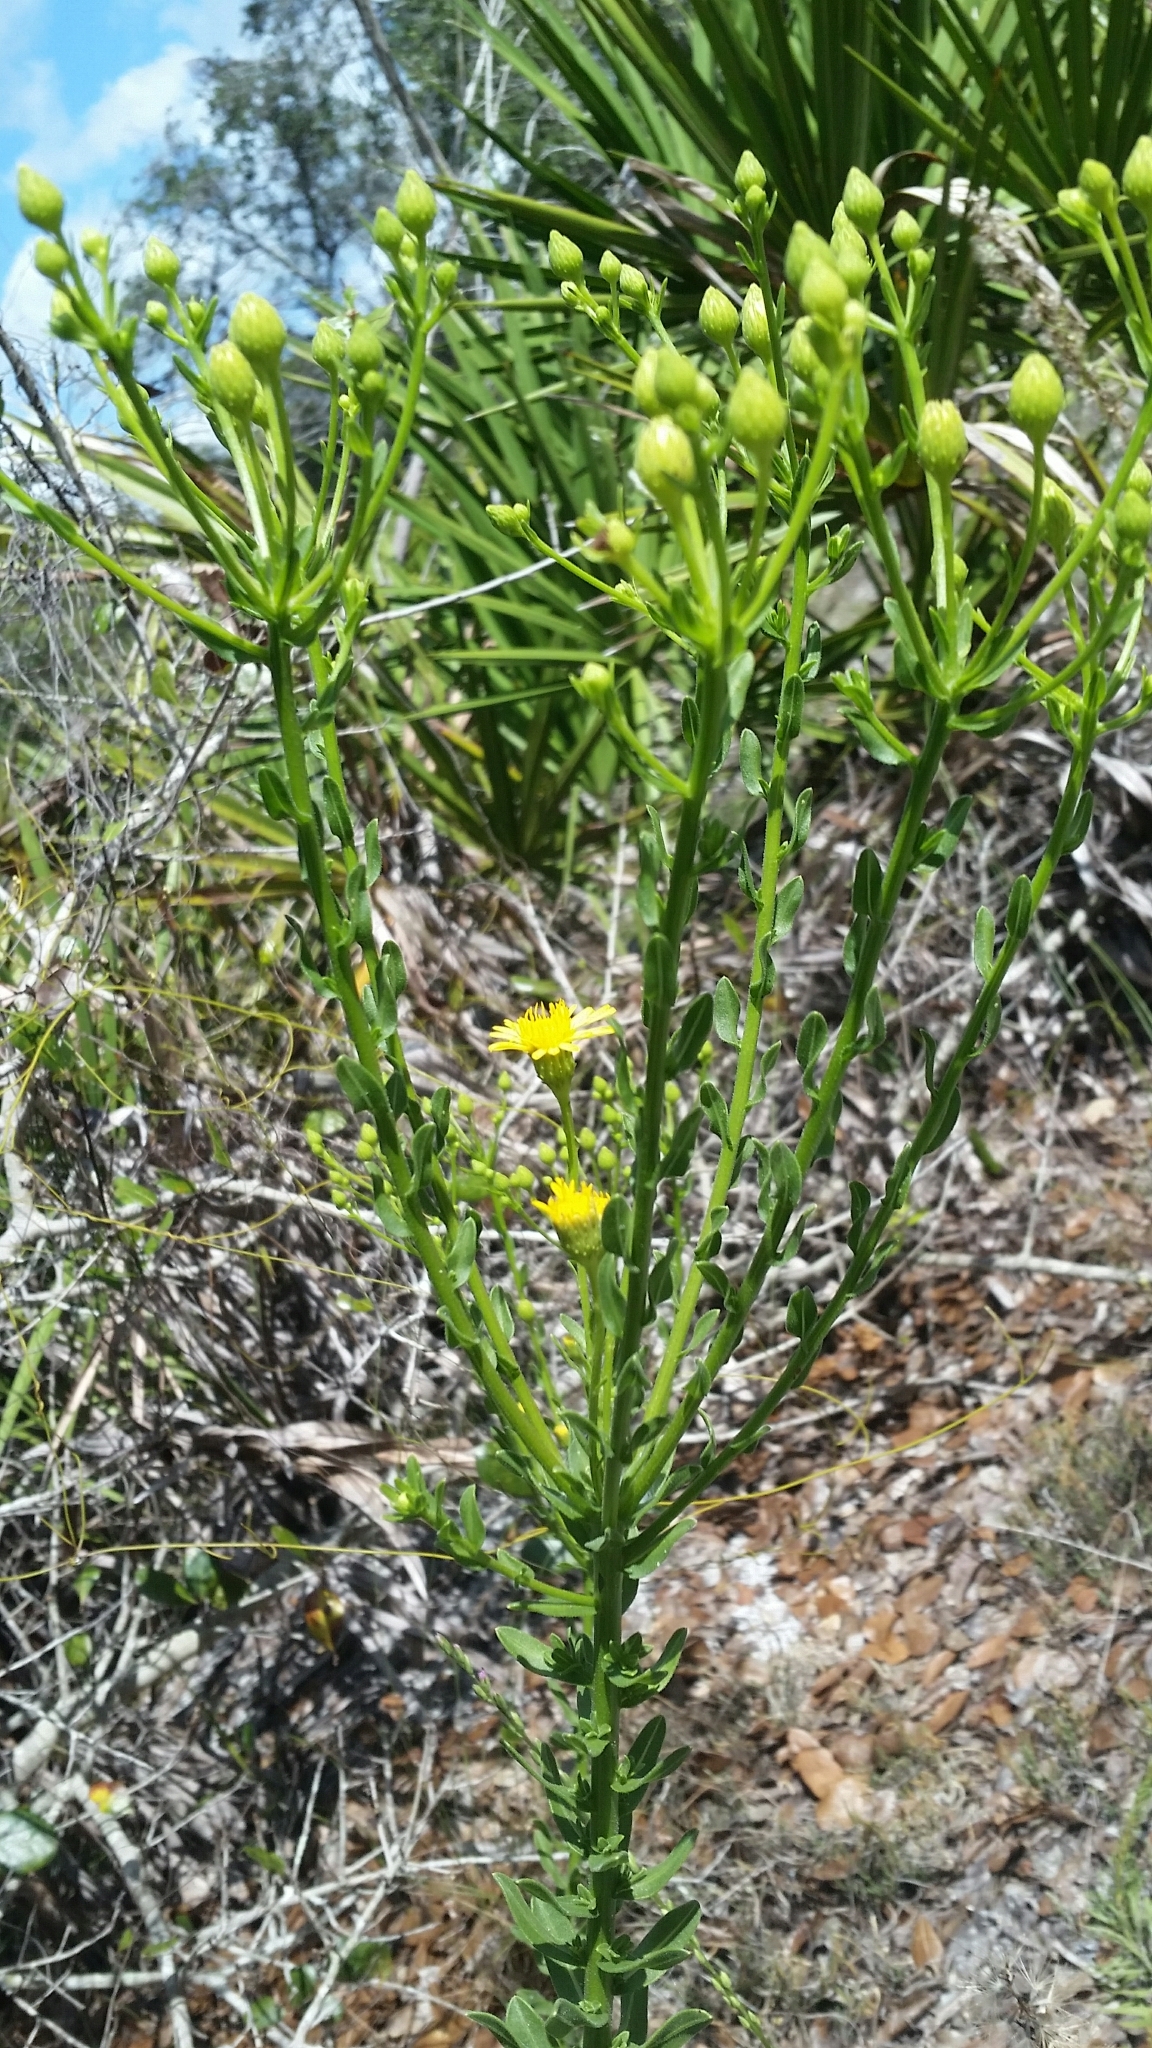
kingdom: Plantae
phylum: Tracheophyta
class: Magnoliopsida
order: Asterales
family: Asteraceae
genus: Chrysopsis
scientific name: Chrysopsis scabrella
